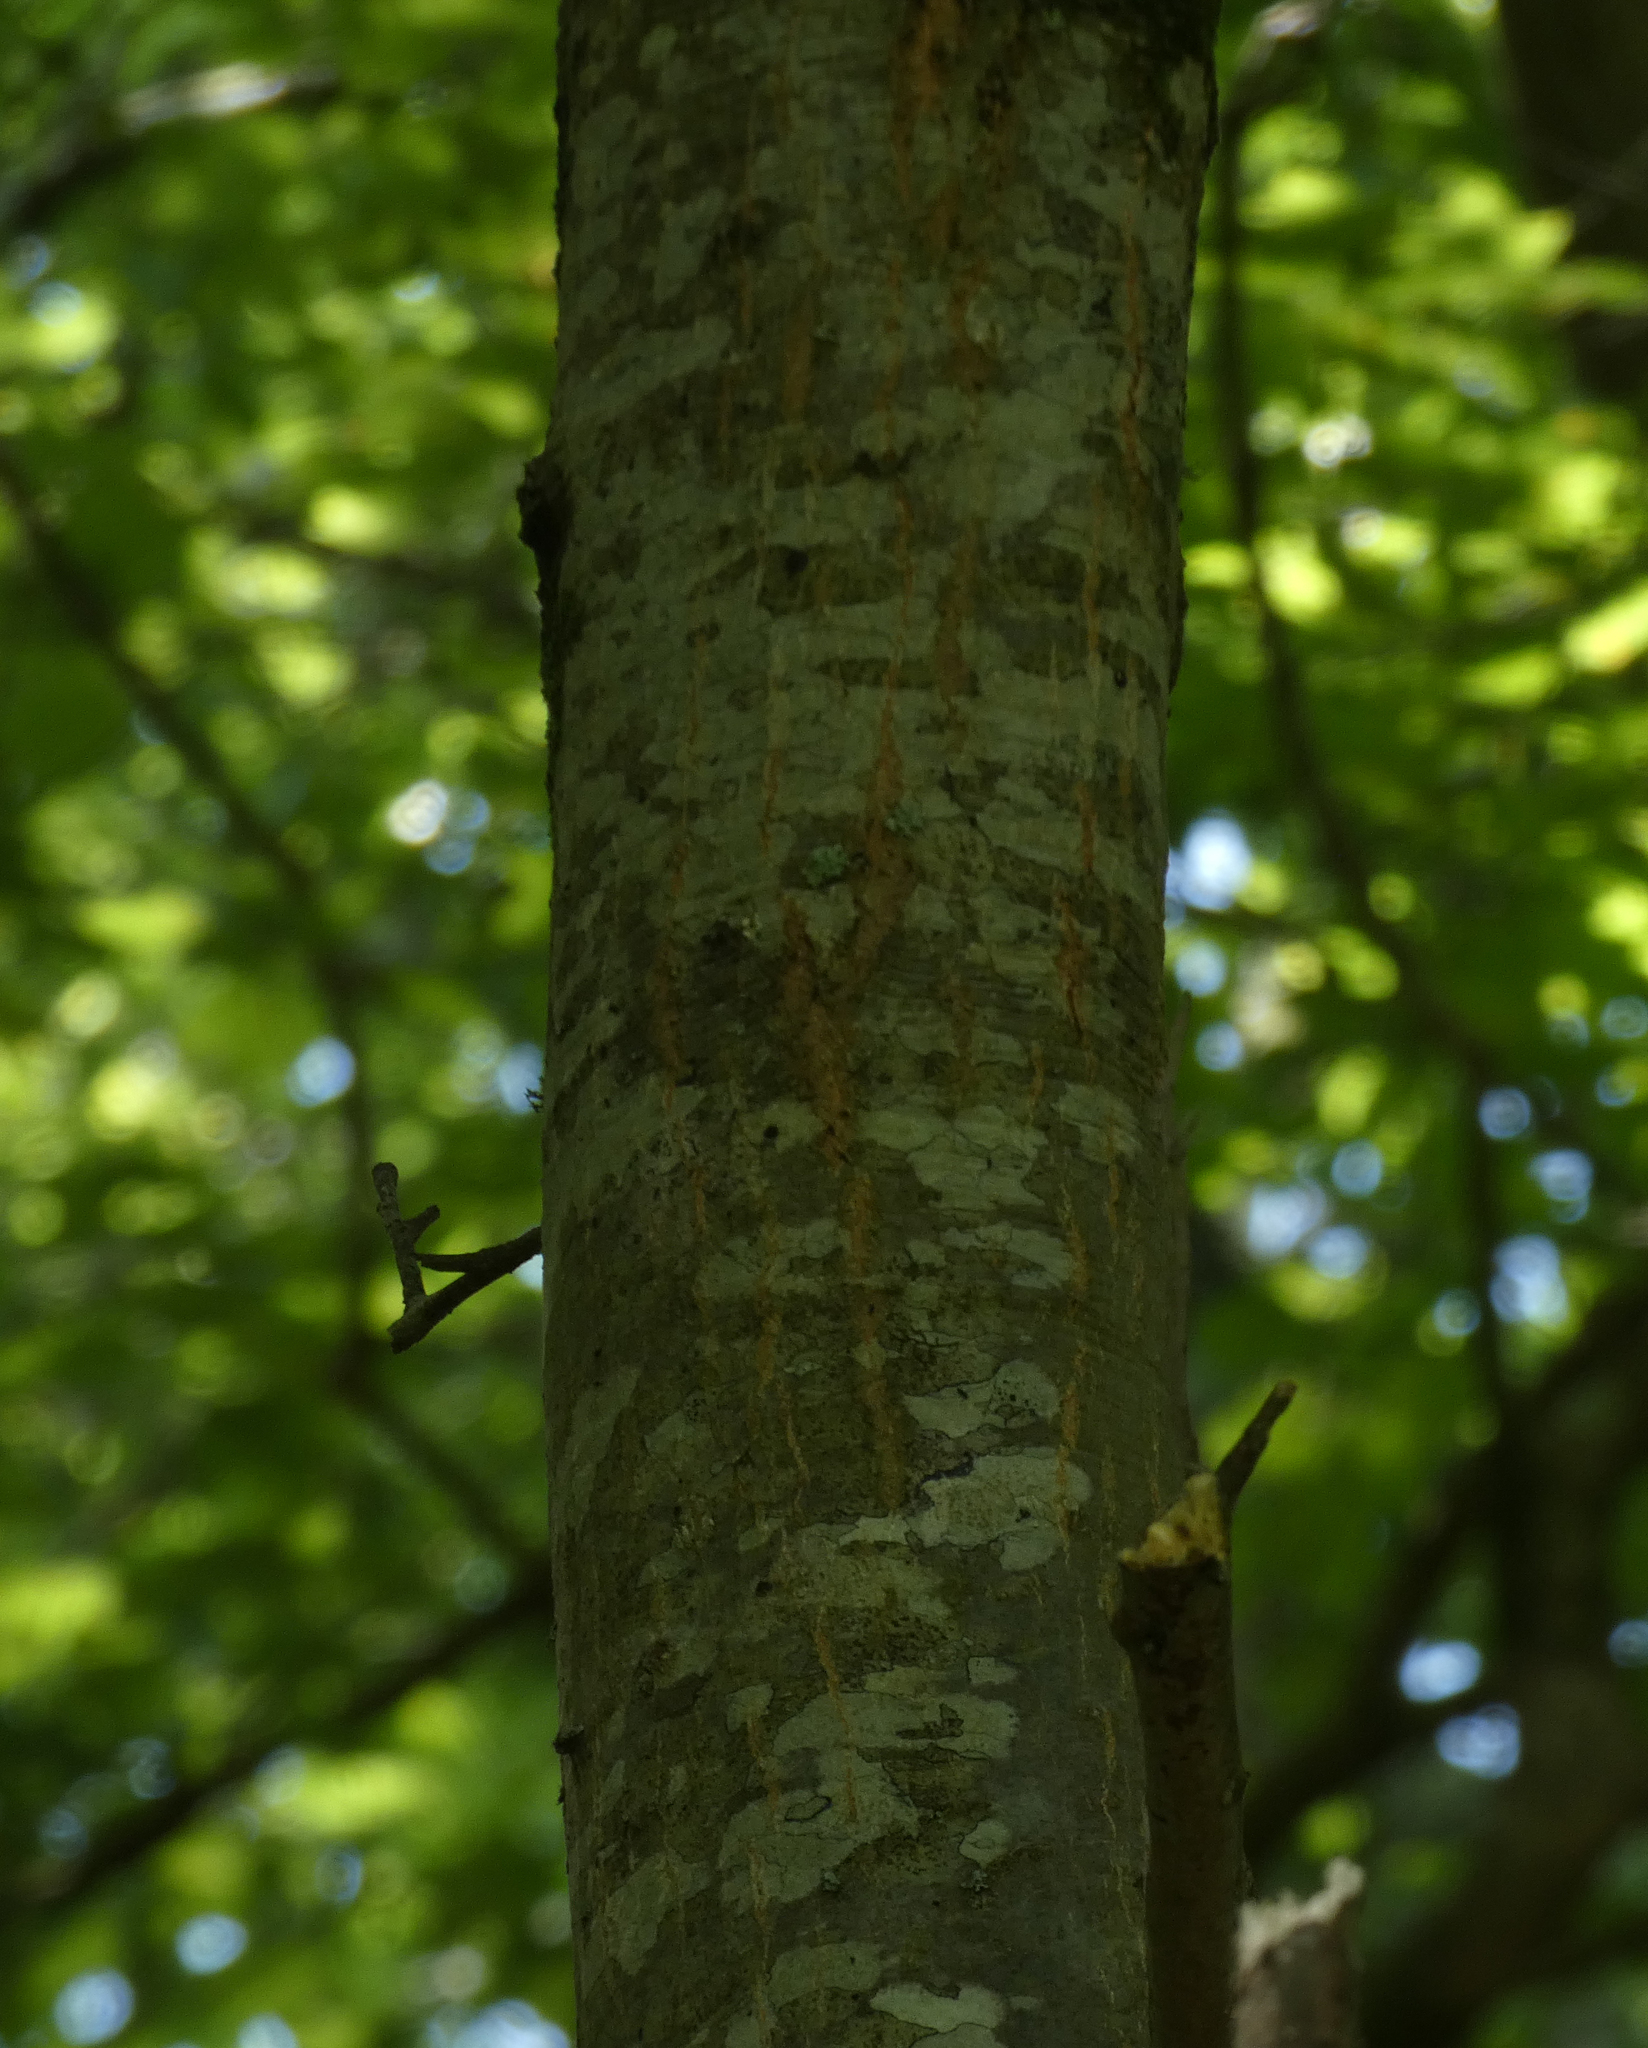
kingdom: Plantae
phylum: Tracheophyta
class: Magnoliopsida
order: Fagales
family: Fagaceae
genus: Quercus
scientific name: Quercus nigra
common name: Water oak
